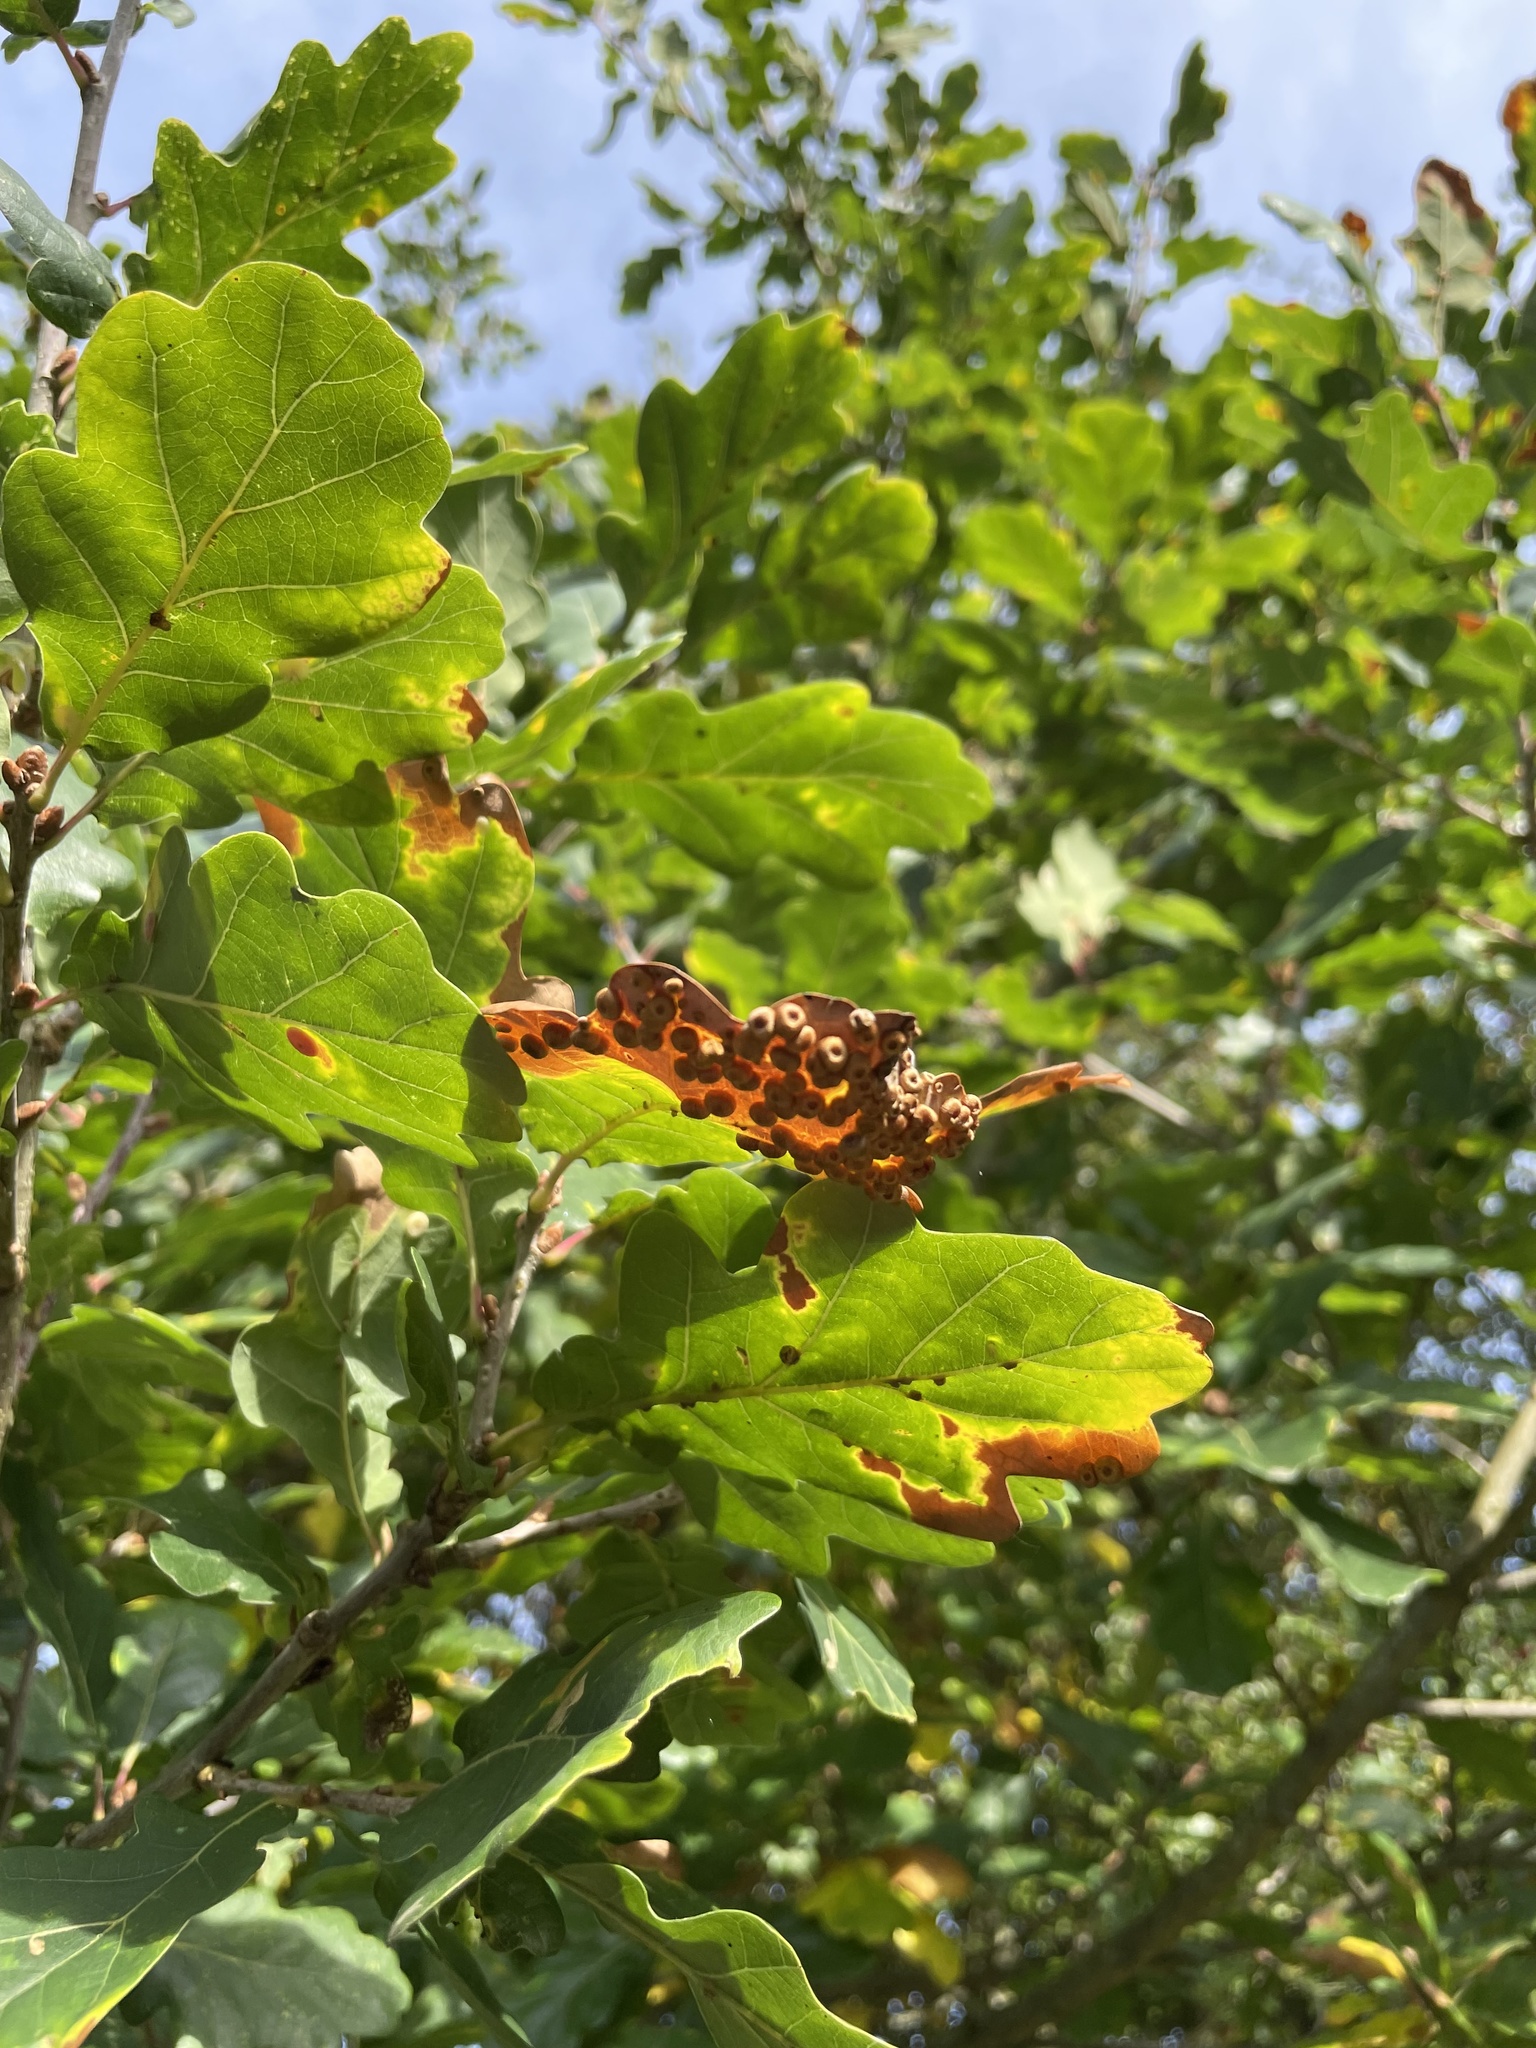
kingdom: Animalia
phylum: Arthropoda
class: Insecta
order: Hymenoptera
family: Cynipidae
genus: Neuroterus
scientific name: Neuroterus numismalis
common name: Silk-button spangle gall
